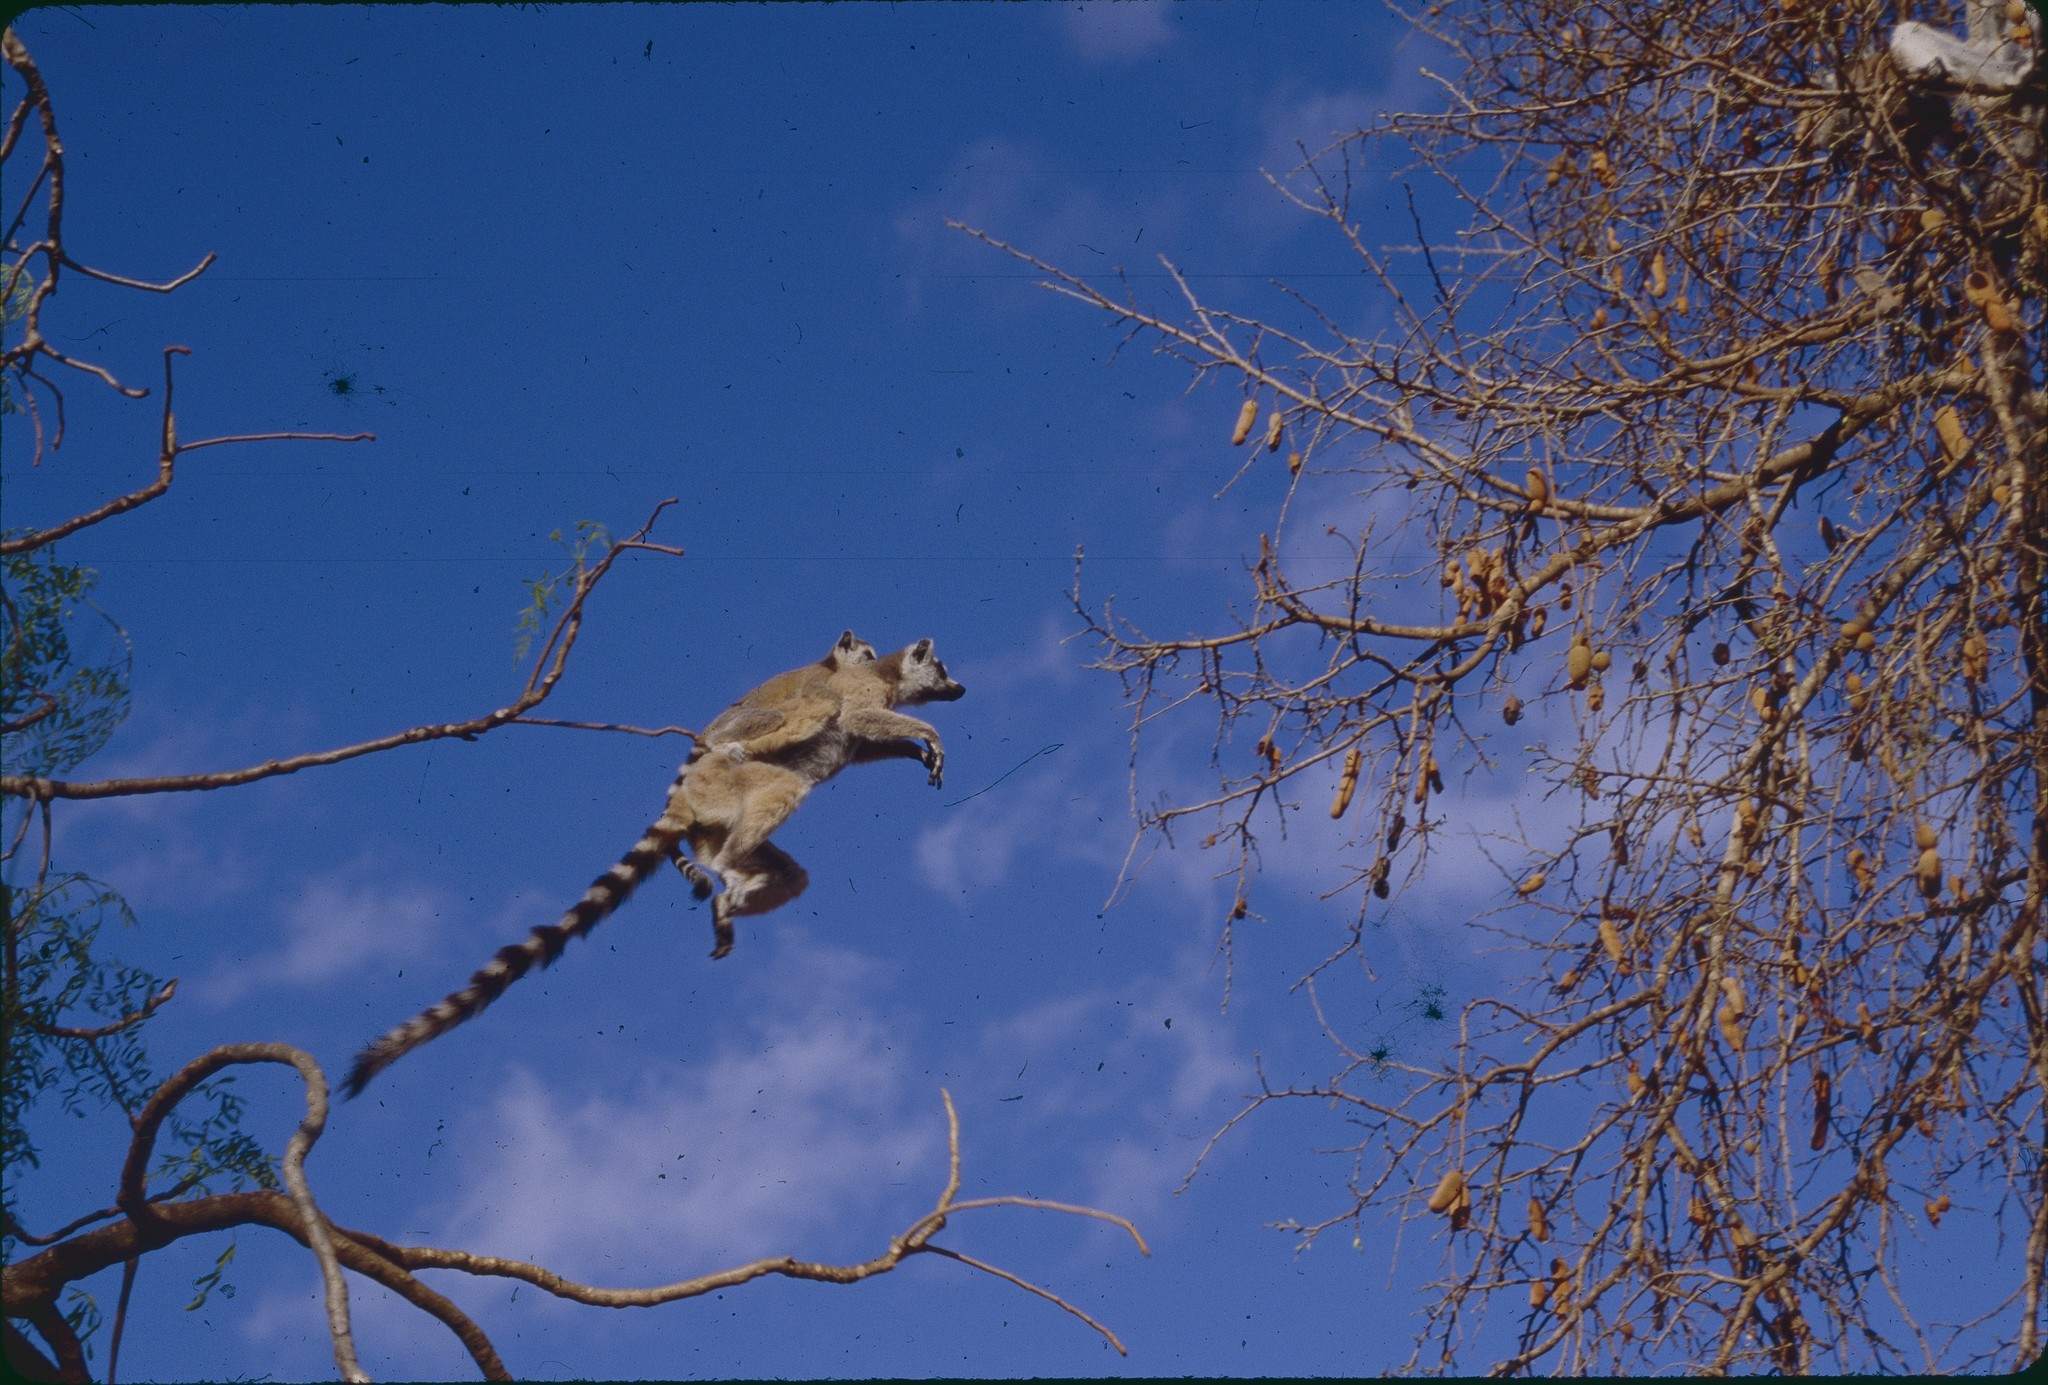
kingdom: Animalia
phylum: Chordata
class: Mammalia
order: Primates
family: Lemuridae
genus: Lemur
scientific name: Lemur catta
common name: Ring-tailed lemur
